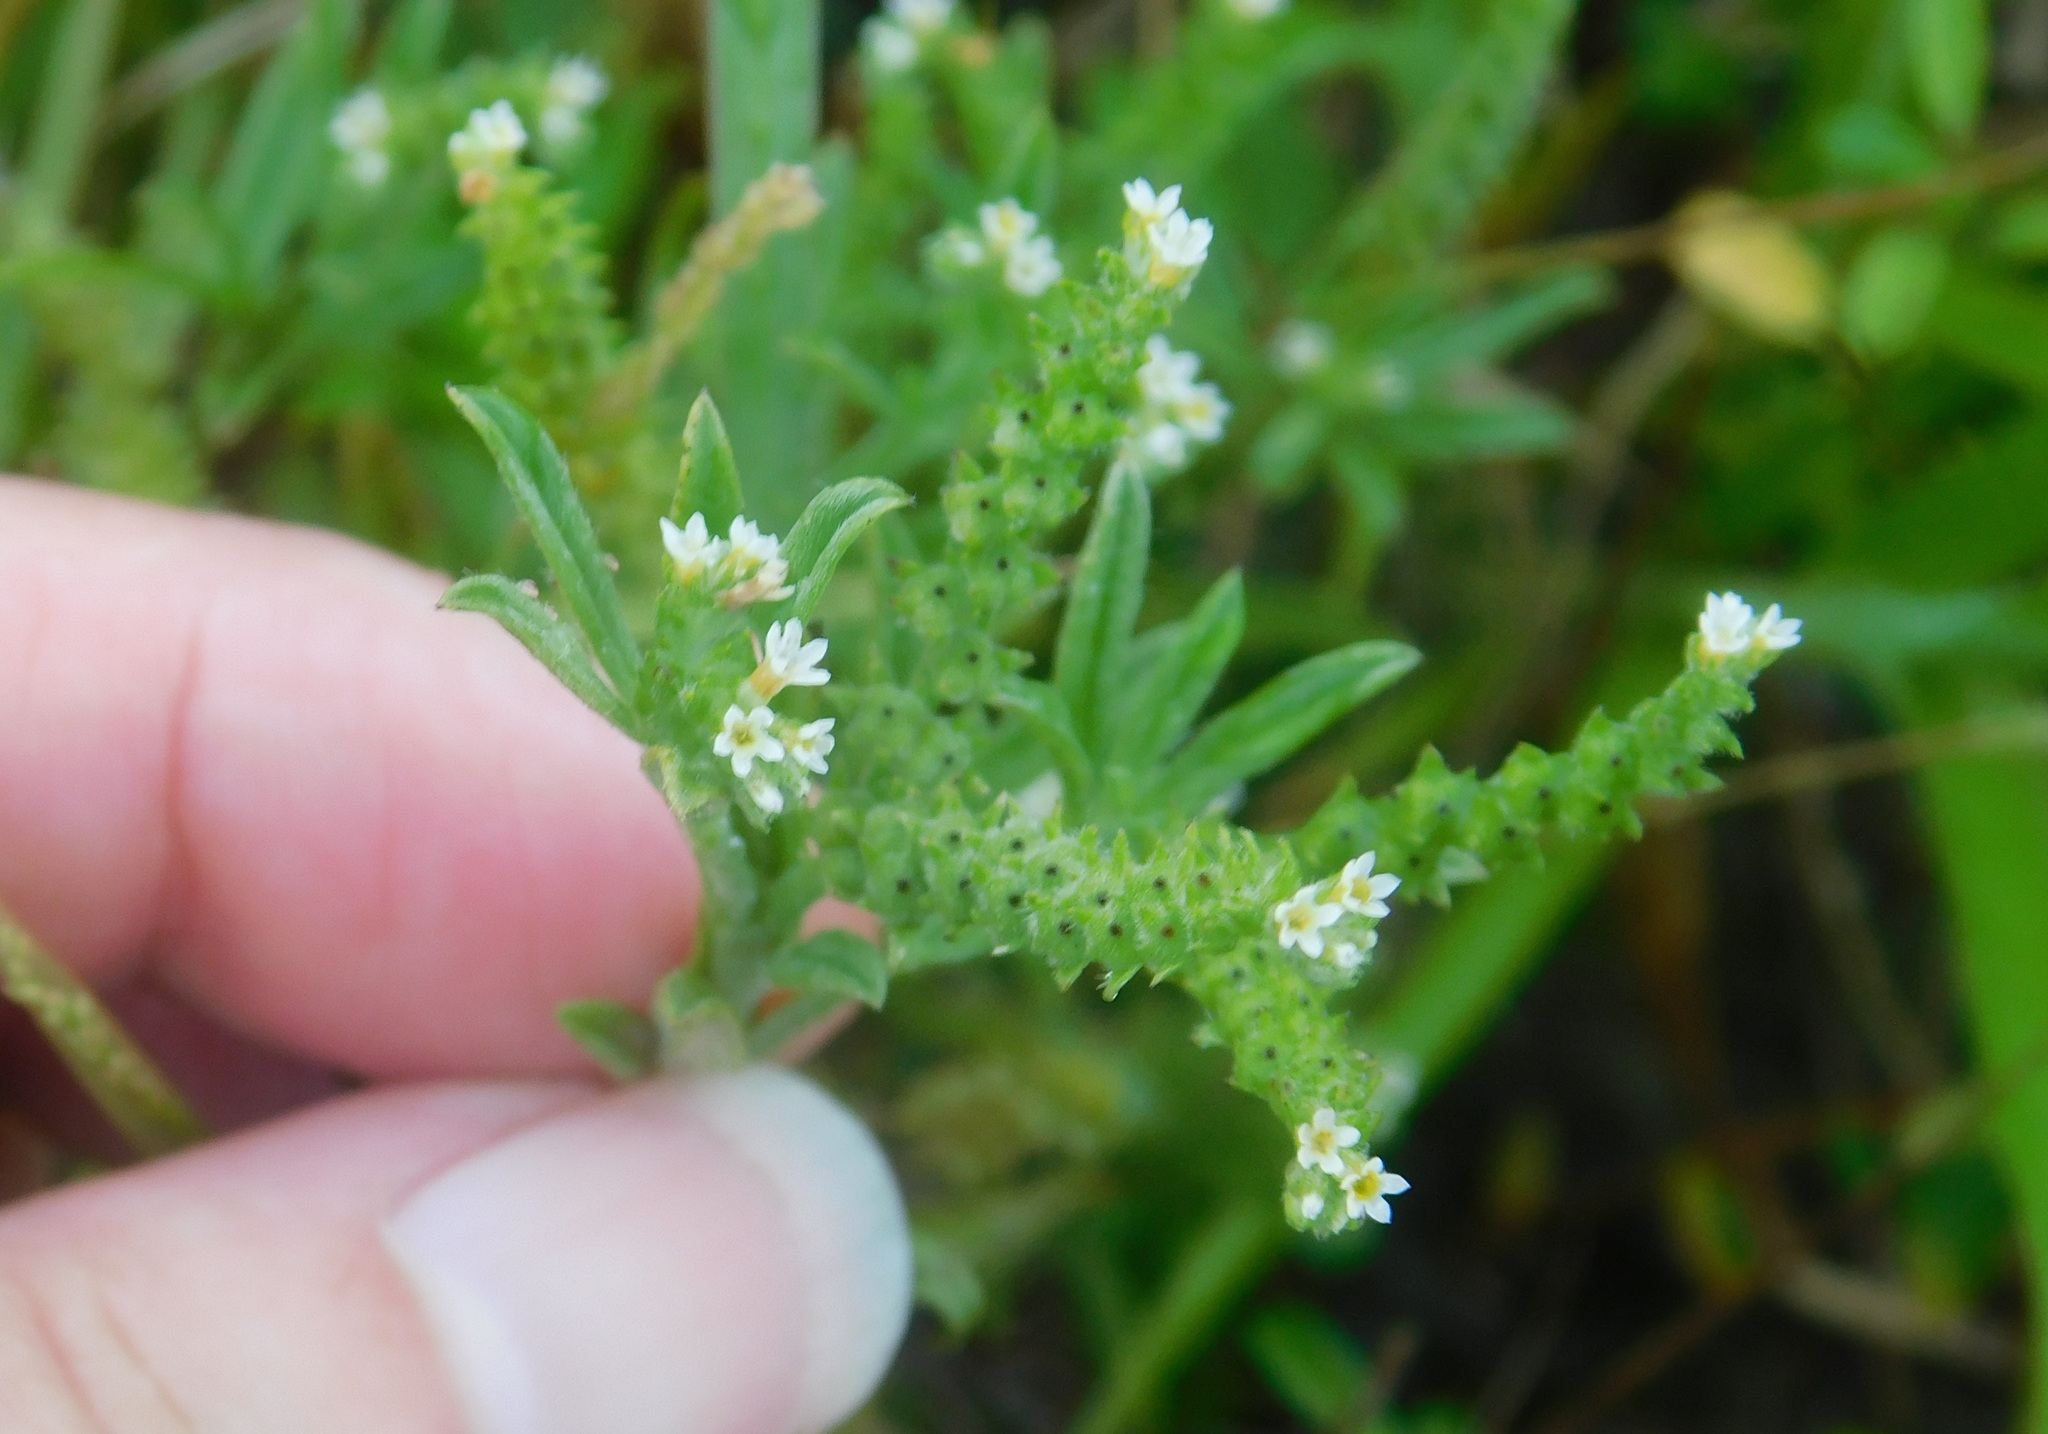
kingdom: Plantae
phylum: Tracheophyta
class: Magnoliopsida
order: Boraginales
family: Heliotropiaceae
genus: Euploca
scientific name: Euploca procumbens
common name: Fourspike heliotrope
